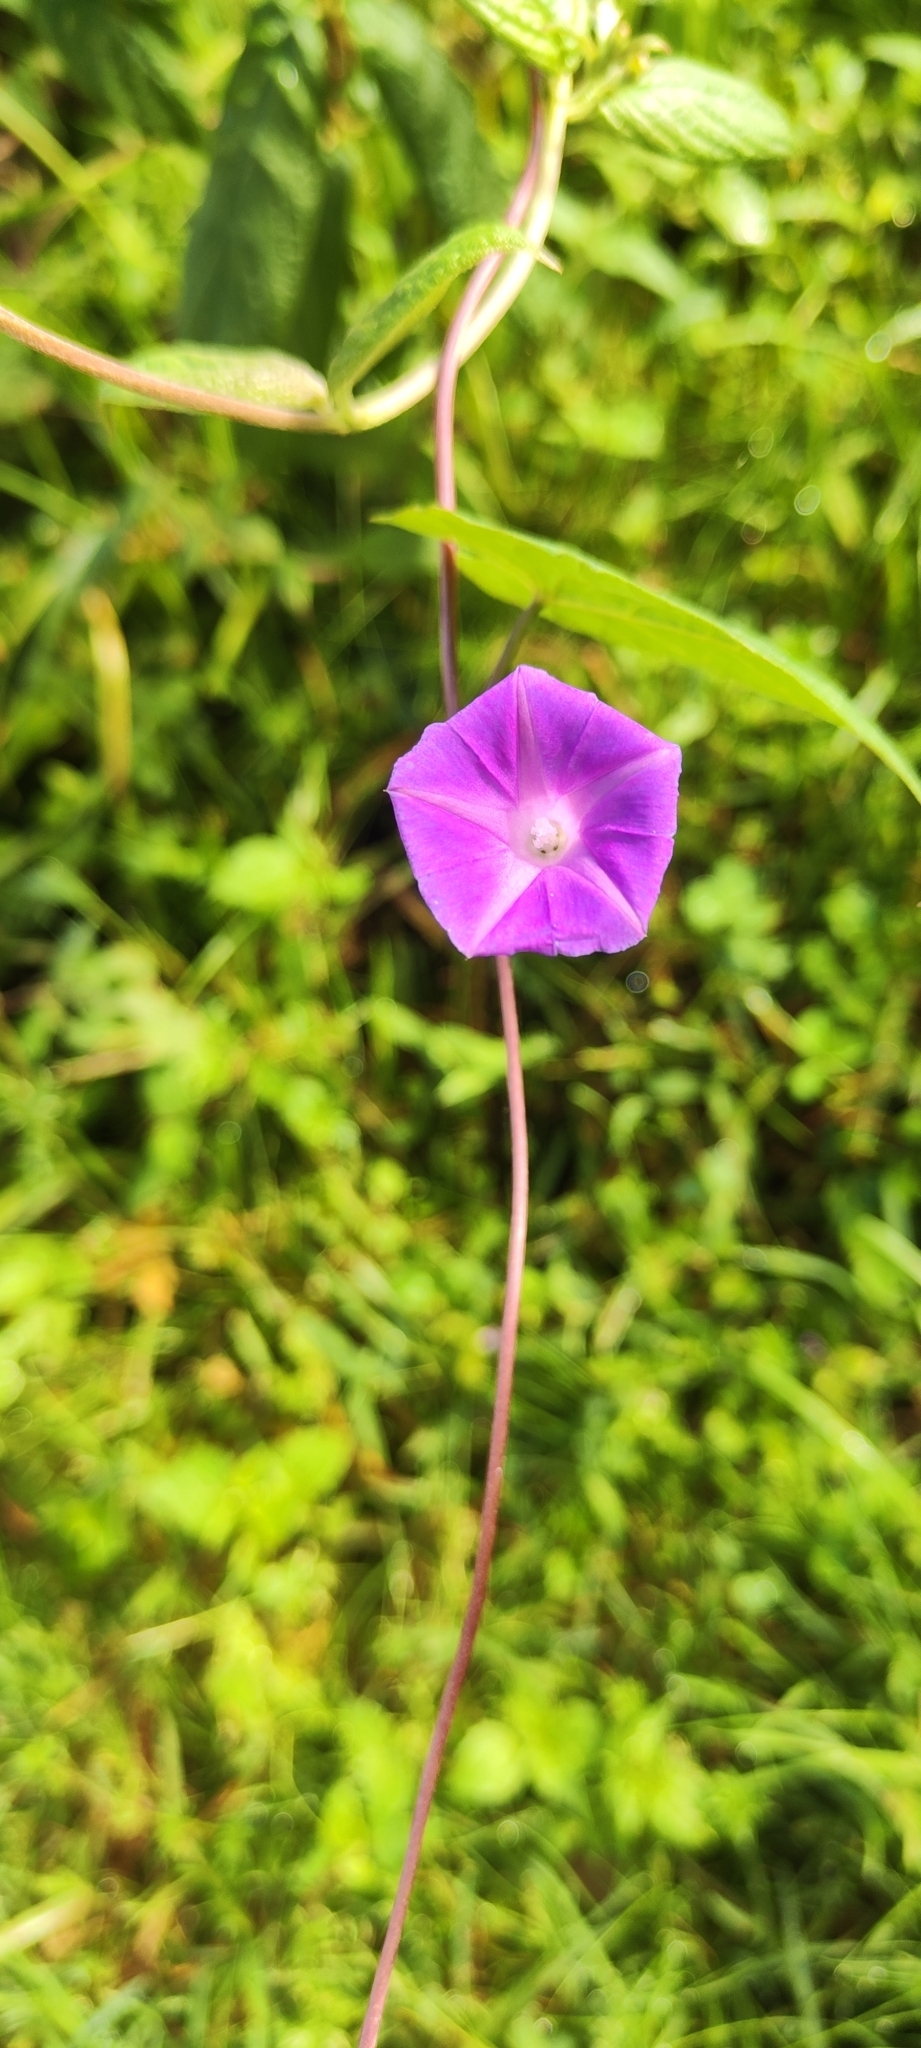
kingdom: Plantae
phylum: Tracheophyta
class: Magnoliopsida
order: Solanales
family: Convolvulaceae
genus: Ipomoea
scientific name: Ipomoea dumetorum
